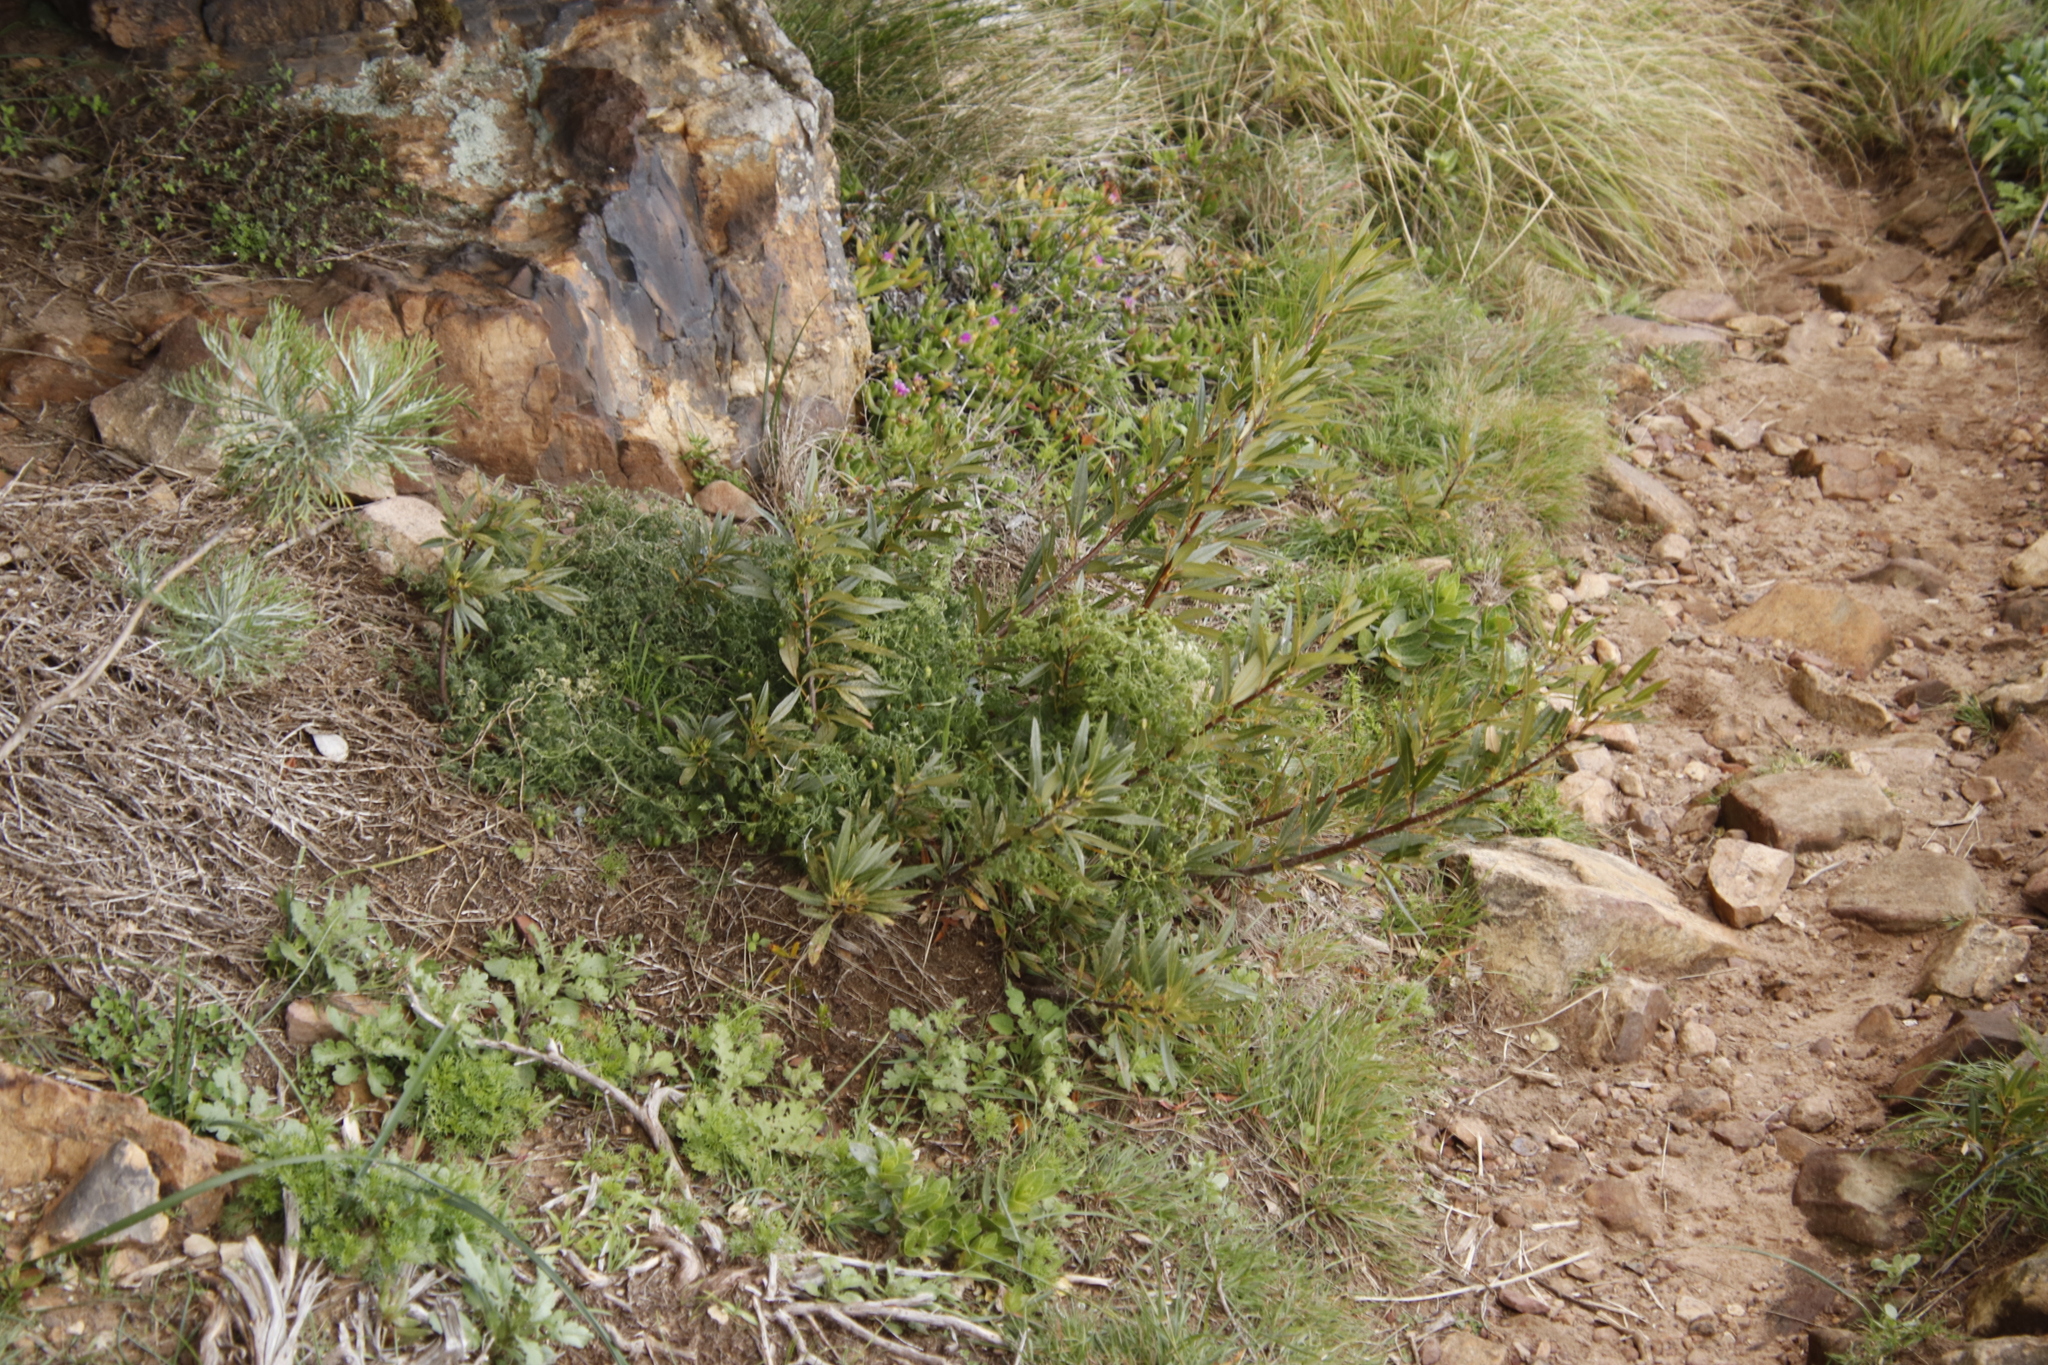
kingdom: Plantae
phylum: Tracheophyta
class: Magnoliopsida
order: Sapindales
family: Anacardiaceae
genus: Searsia
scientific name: Searsia angustifolia
